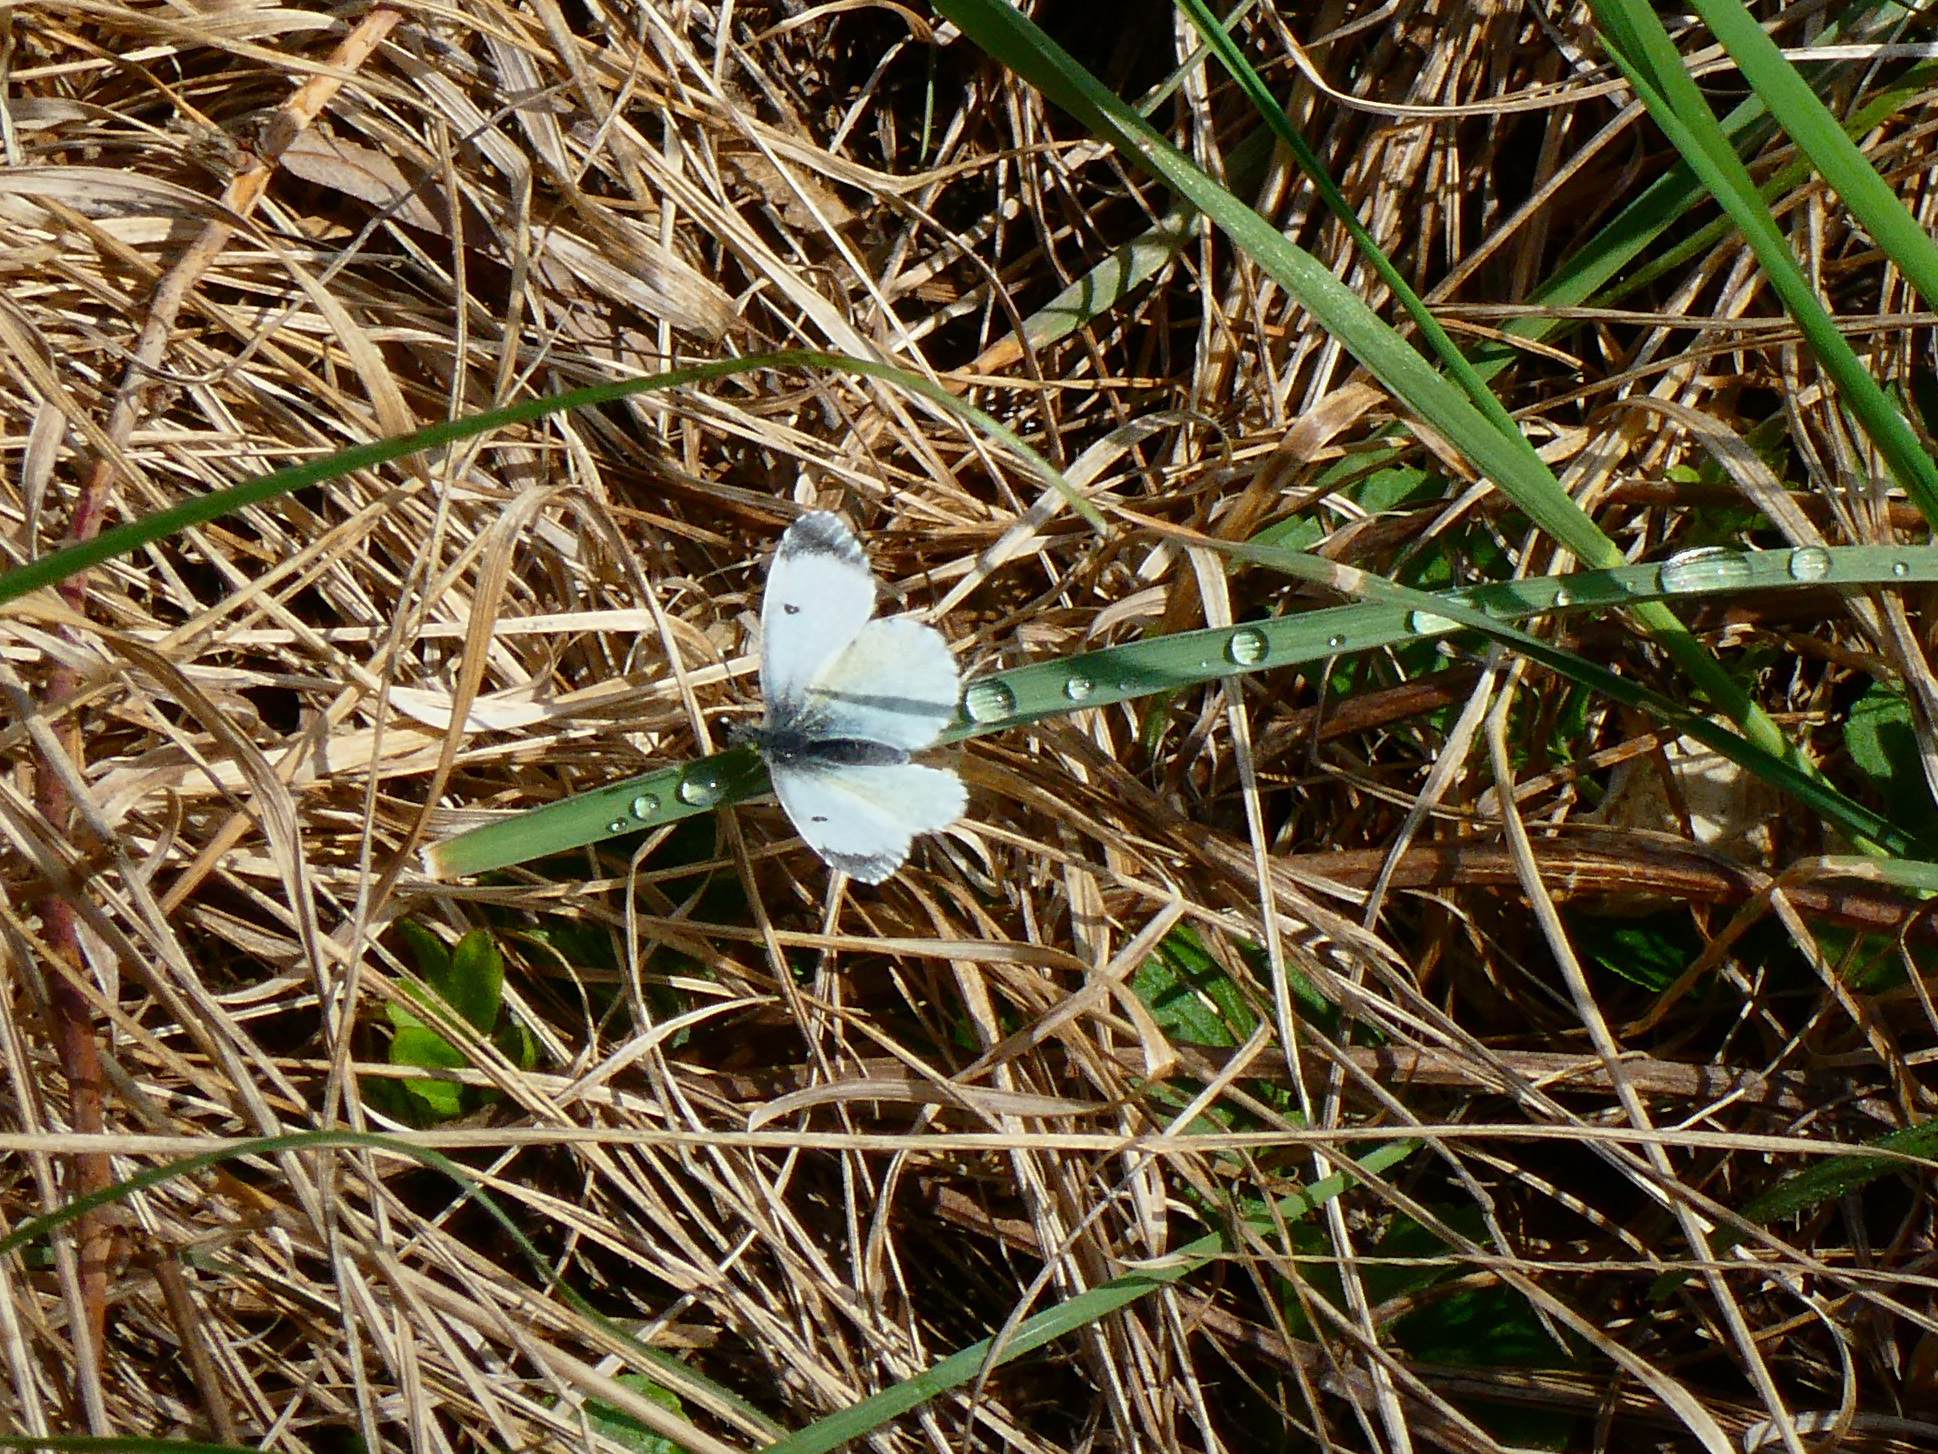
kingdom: Animalia
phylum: Arthropoda
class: Insecta
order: Lepidoptera
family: Pieridae
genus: Anthocharis
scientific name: Anthocharis cardamines
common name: Orange-tip
